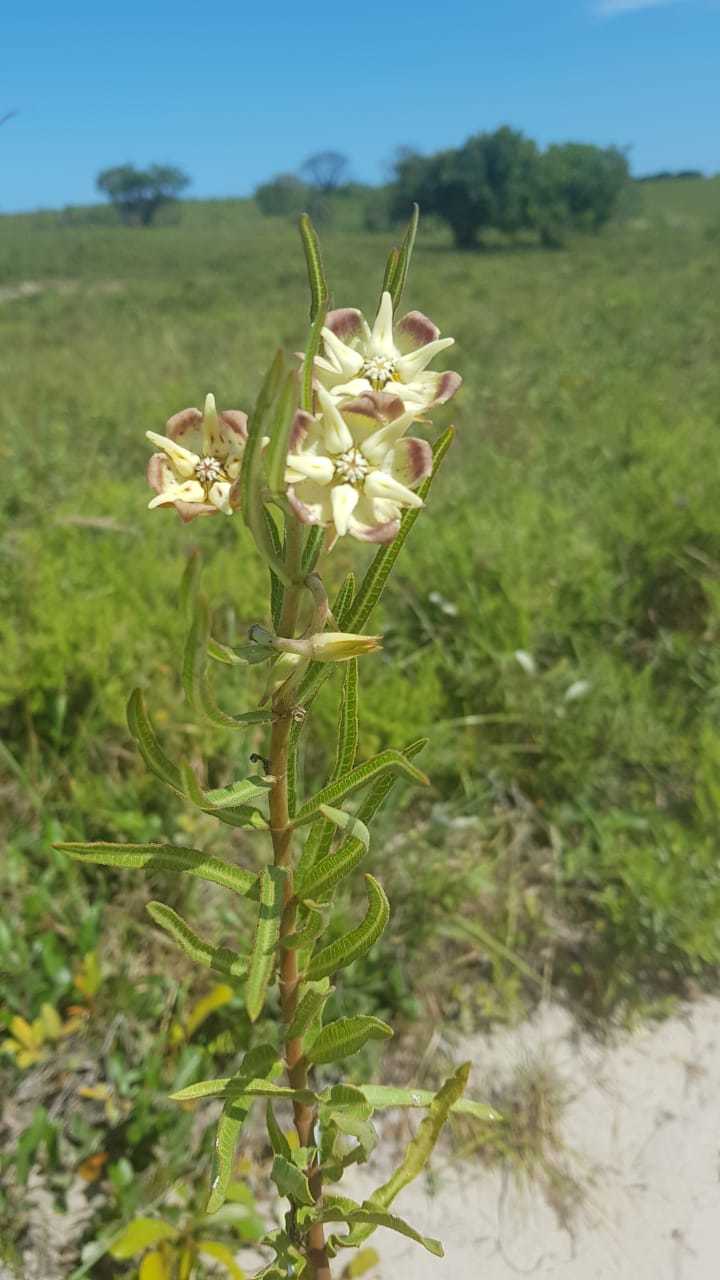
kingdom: Plantae
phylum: Tracheophyta
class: Magnoliopsida
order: Gentianales
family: Apocynaceae
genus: Pachycarpus
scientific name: Pachycarpus concolor
